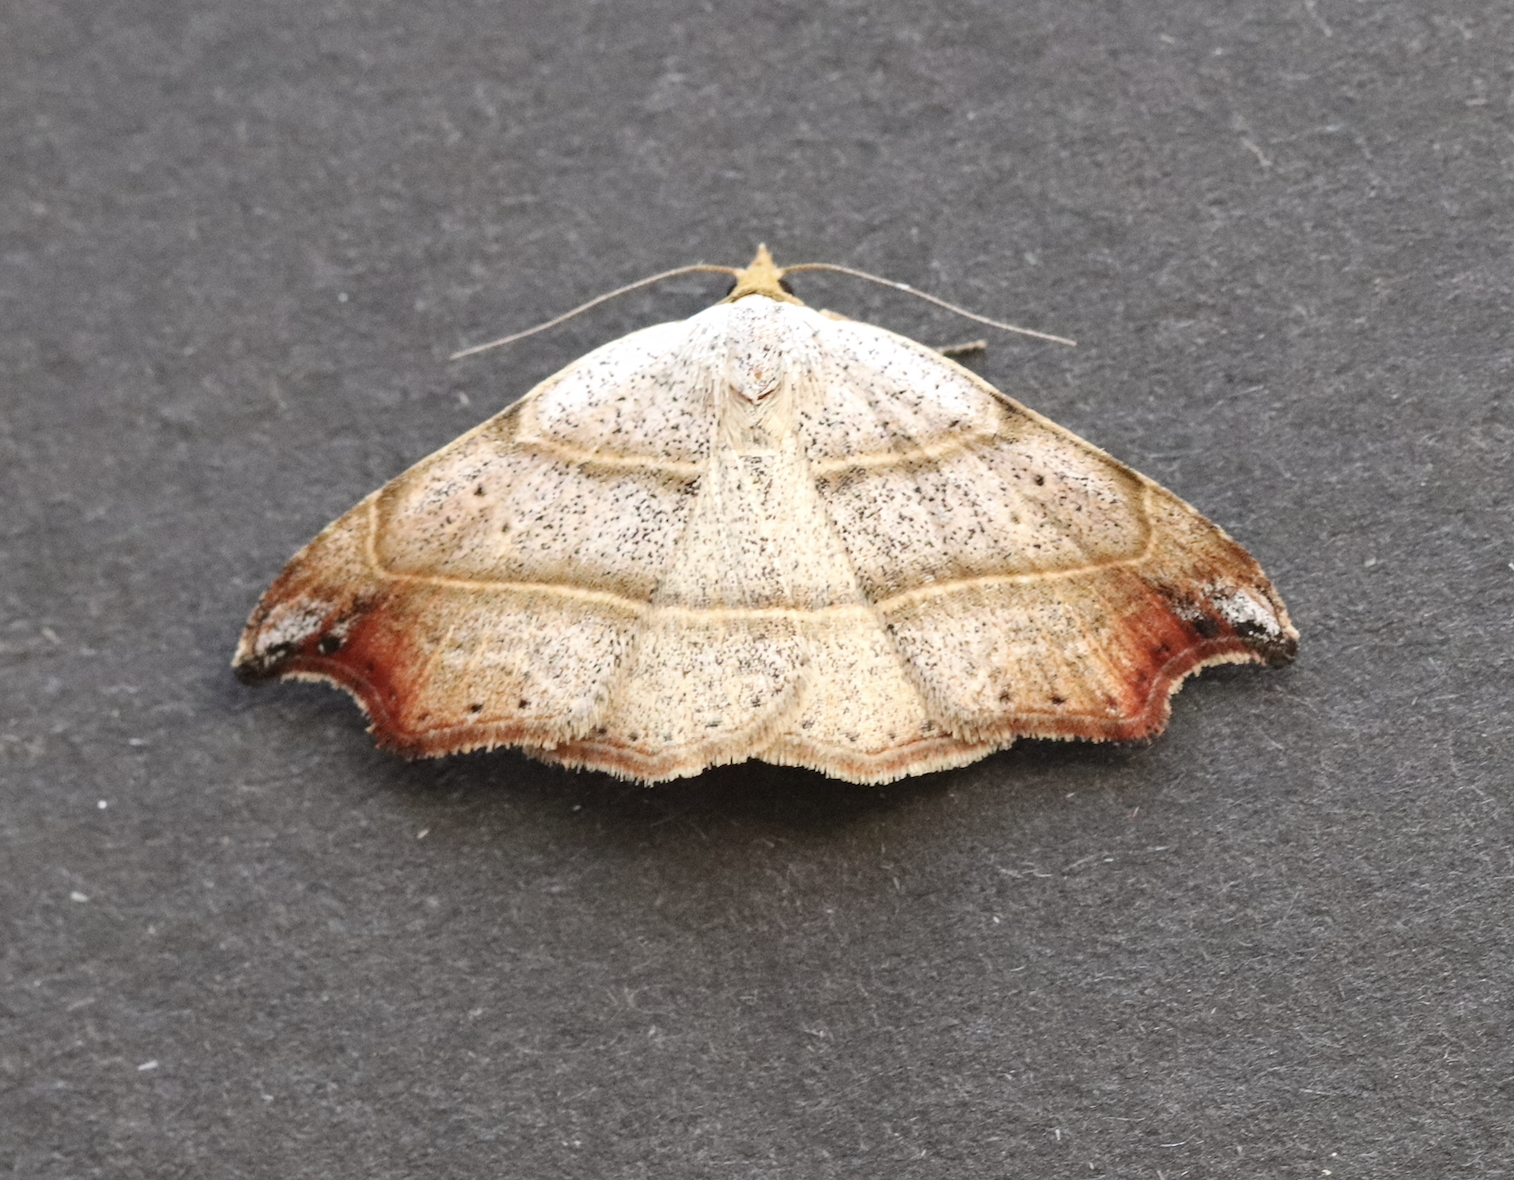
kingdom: Animalia
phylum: Arthropoda
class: Insecta
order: Lepidoptera
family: Erebidae
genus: Laspeyria
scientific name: Laspeyria flexula
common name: Beautiful hook-tip
